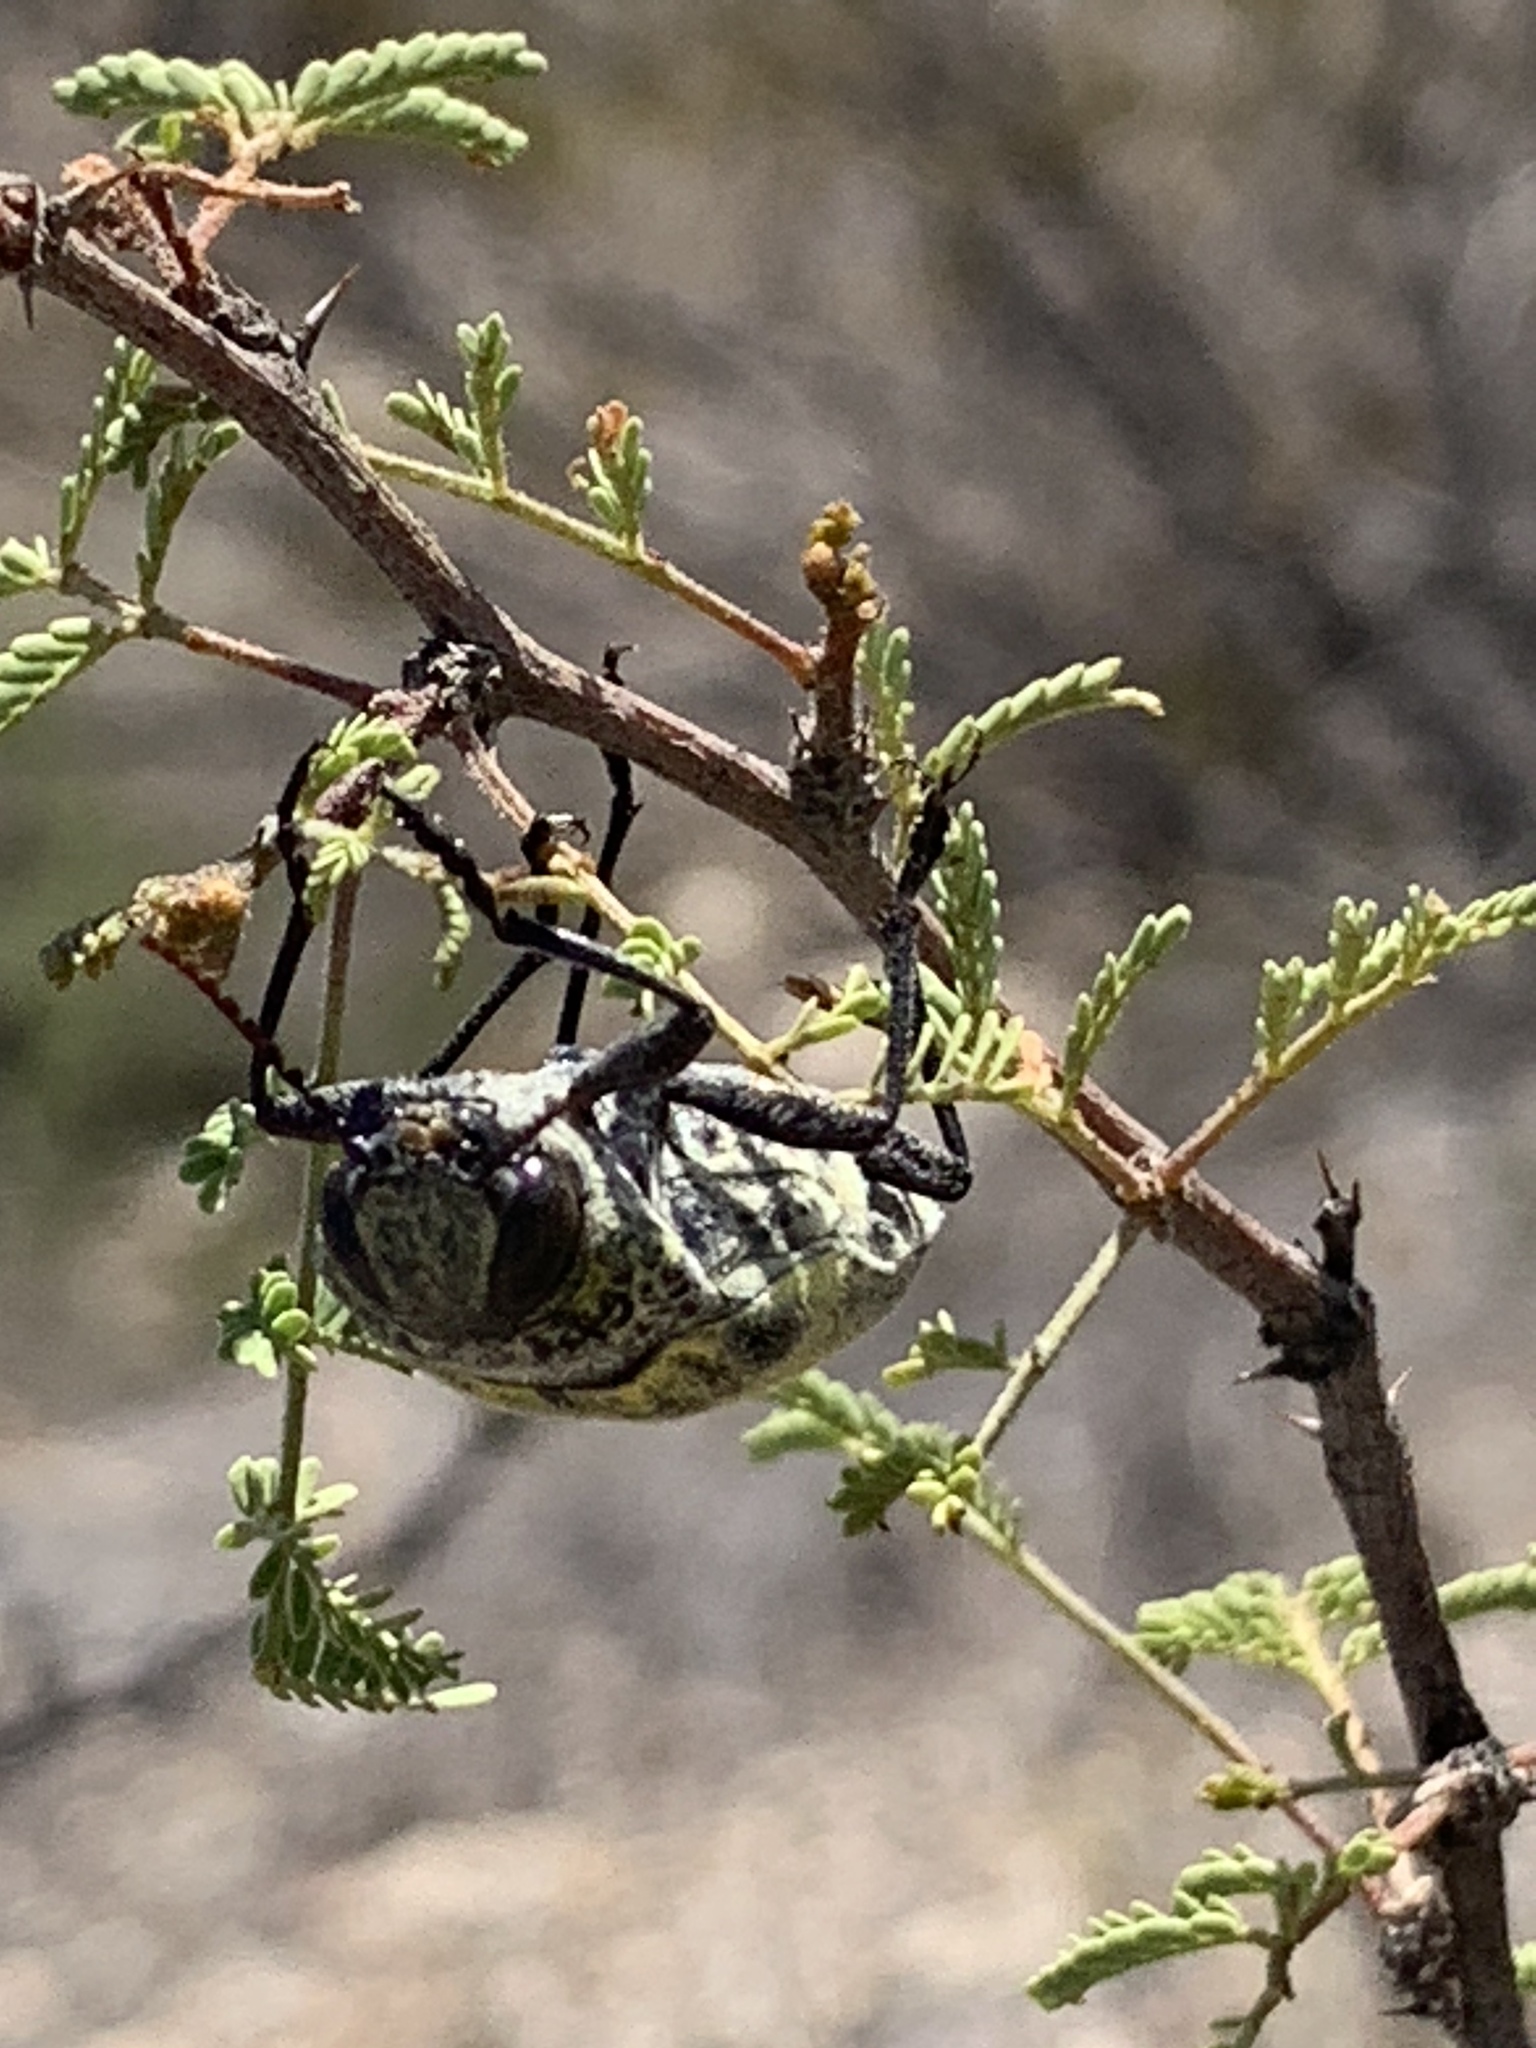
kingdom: Animalia
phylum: Arthropoda
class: Insecta
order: Coleoptera
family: Buprestidae
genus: Gyascutus
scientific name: Gyascutus caelatus
